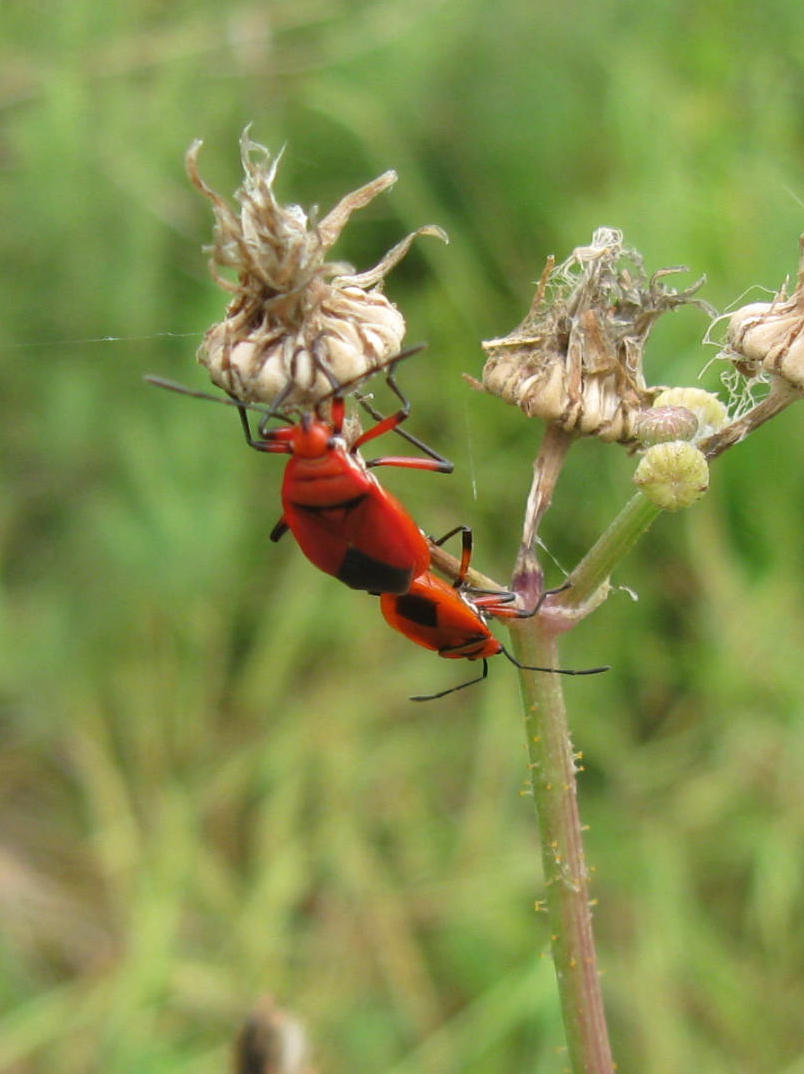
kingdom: Animalia
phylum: Arthropoda
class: Insecta
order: Hemiptera
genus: Cenaeus
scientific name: Cenaeus
